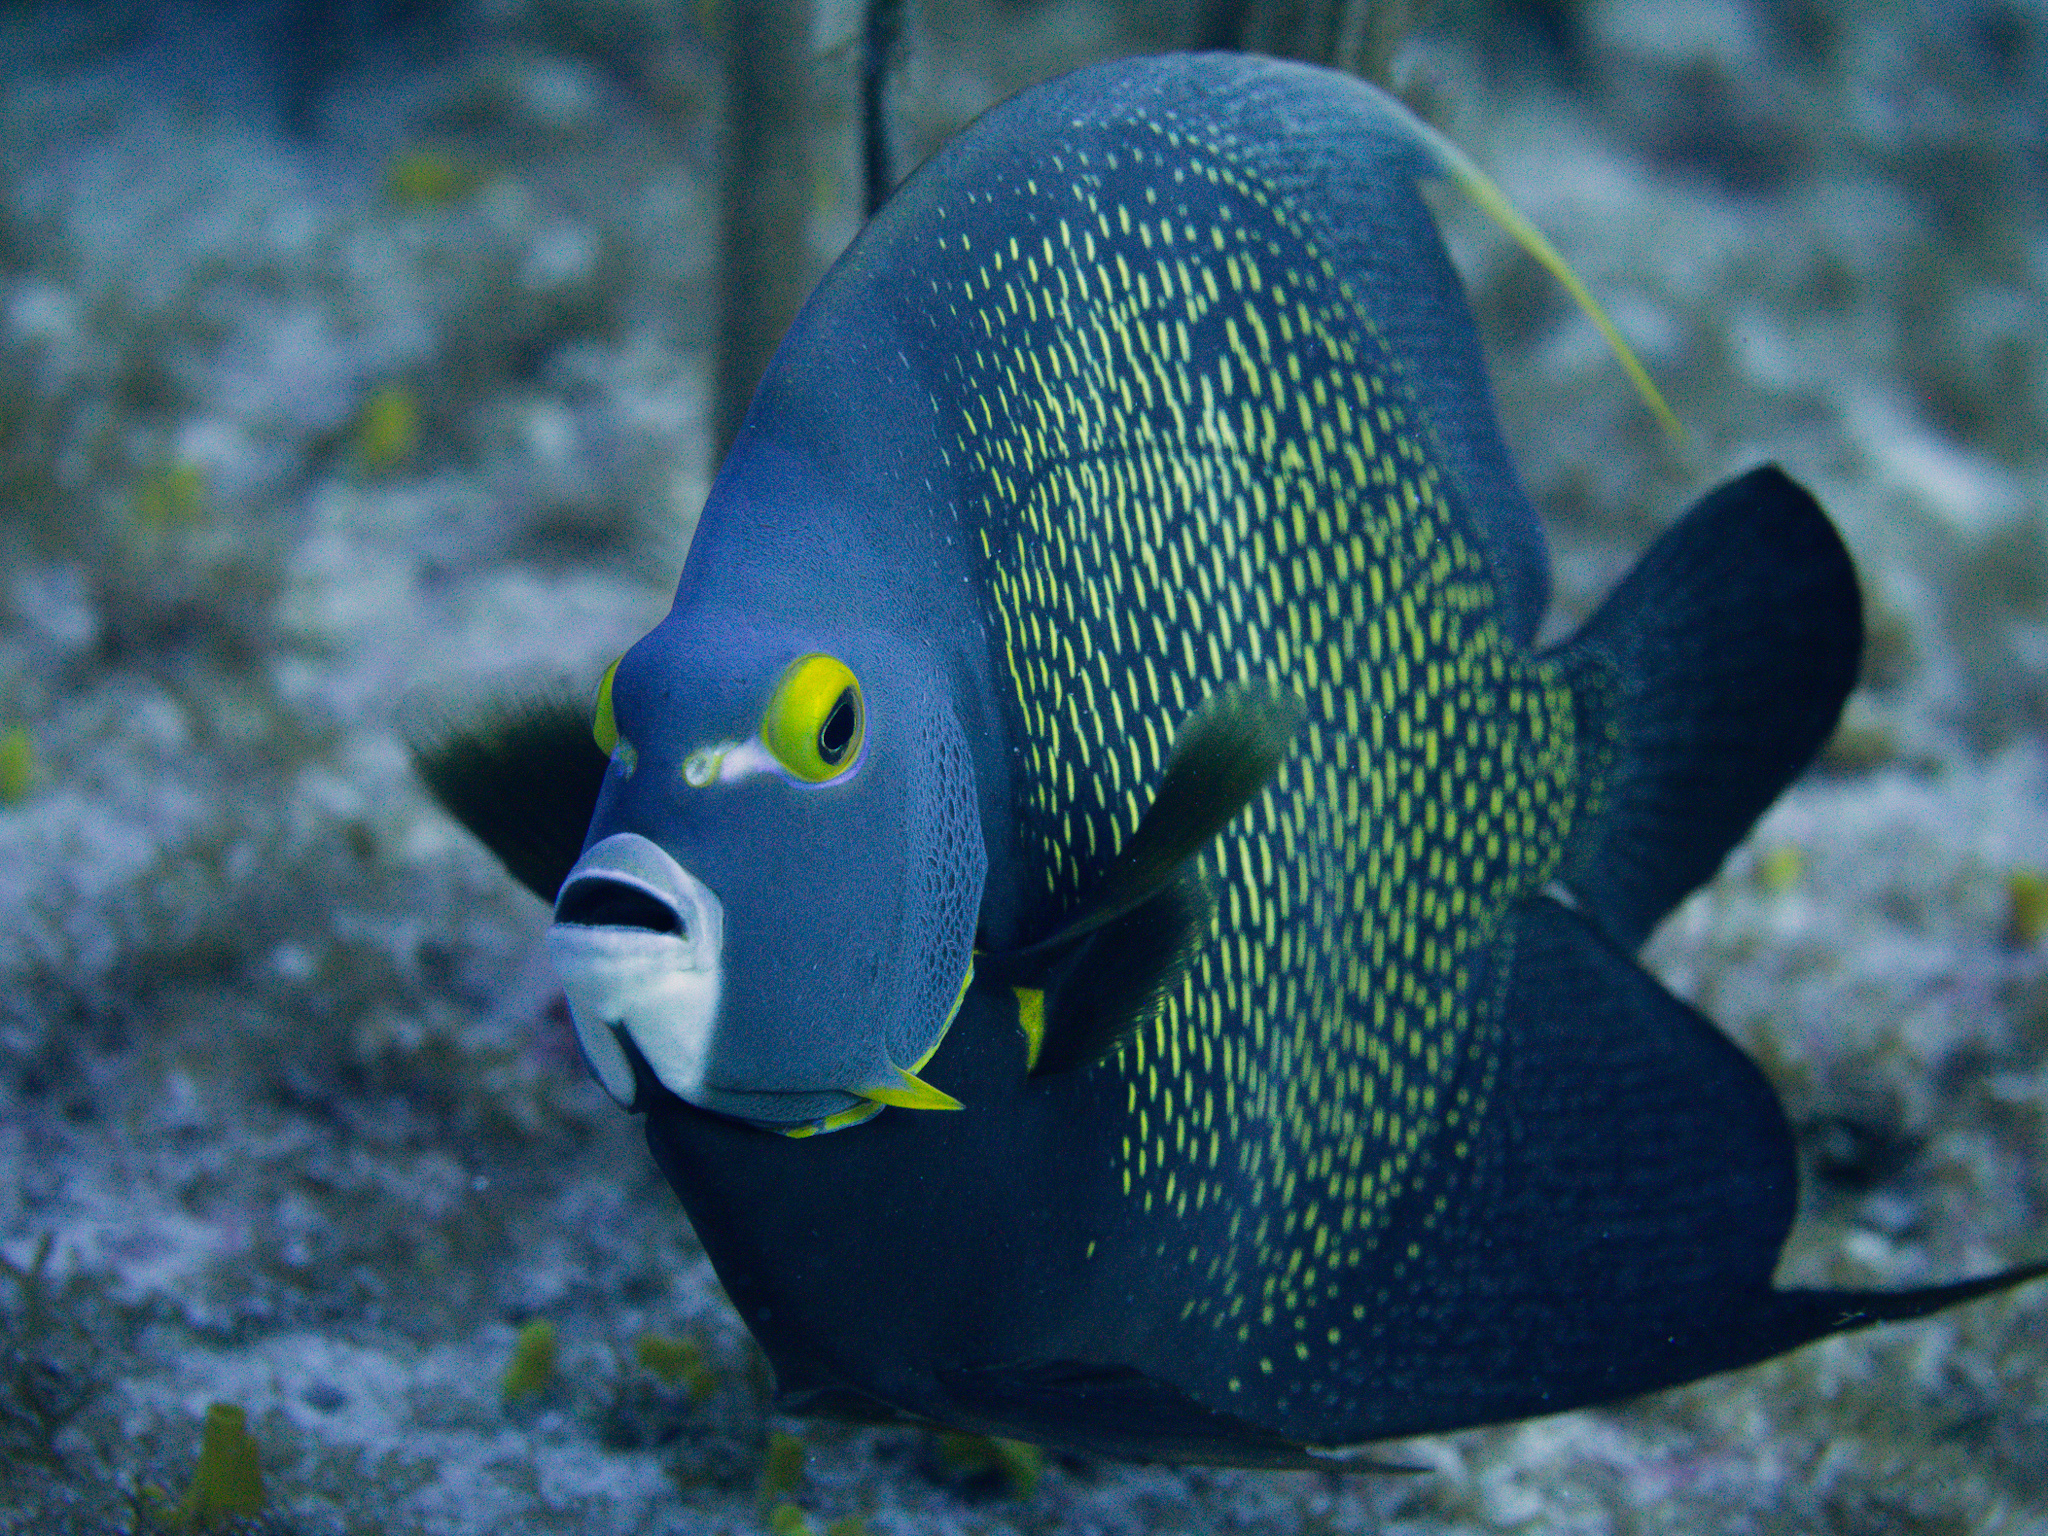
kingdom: Animalia
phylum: Chordata
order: Perciformes
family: Pomacanthidae
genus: Pomacanthus
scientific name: Pomacanthus paru
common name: French angelfish
